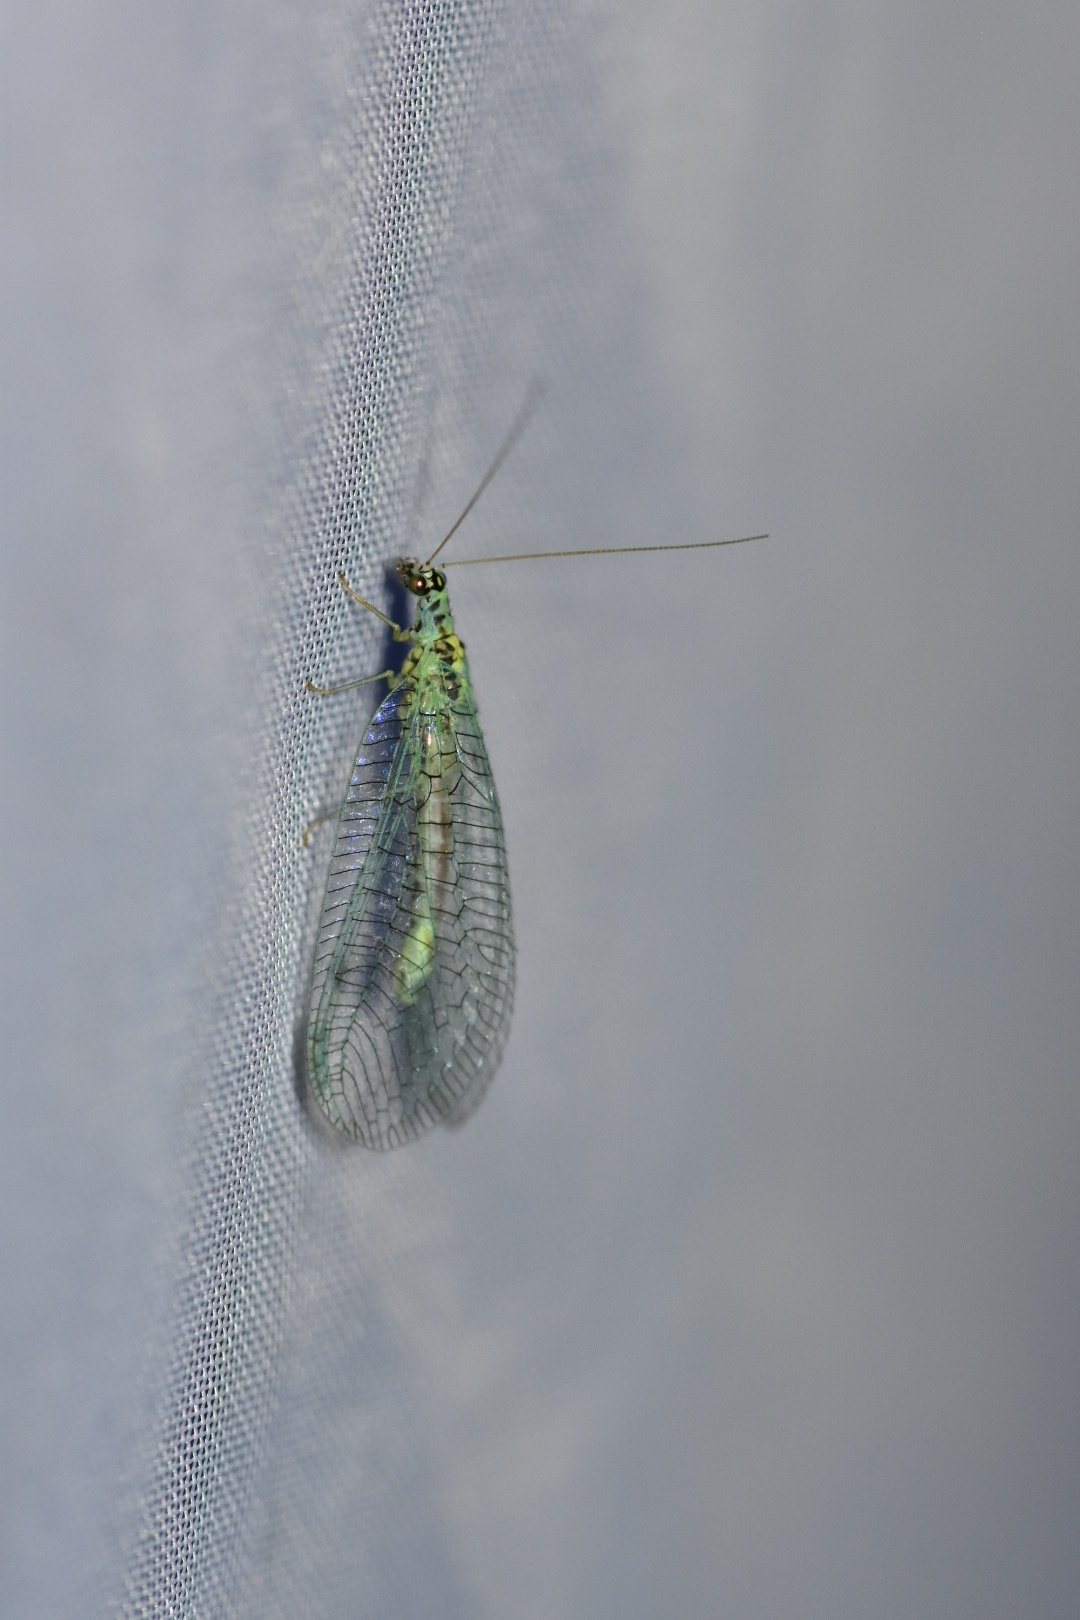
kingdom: Animalia
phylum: Arthropoda
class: Insecta
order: Neuroptera
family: Chrysopidae
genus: Chrysopa
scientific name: Chrysopa perla
